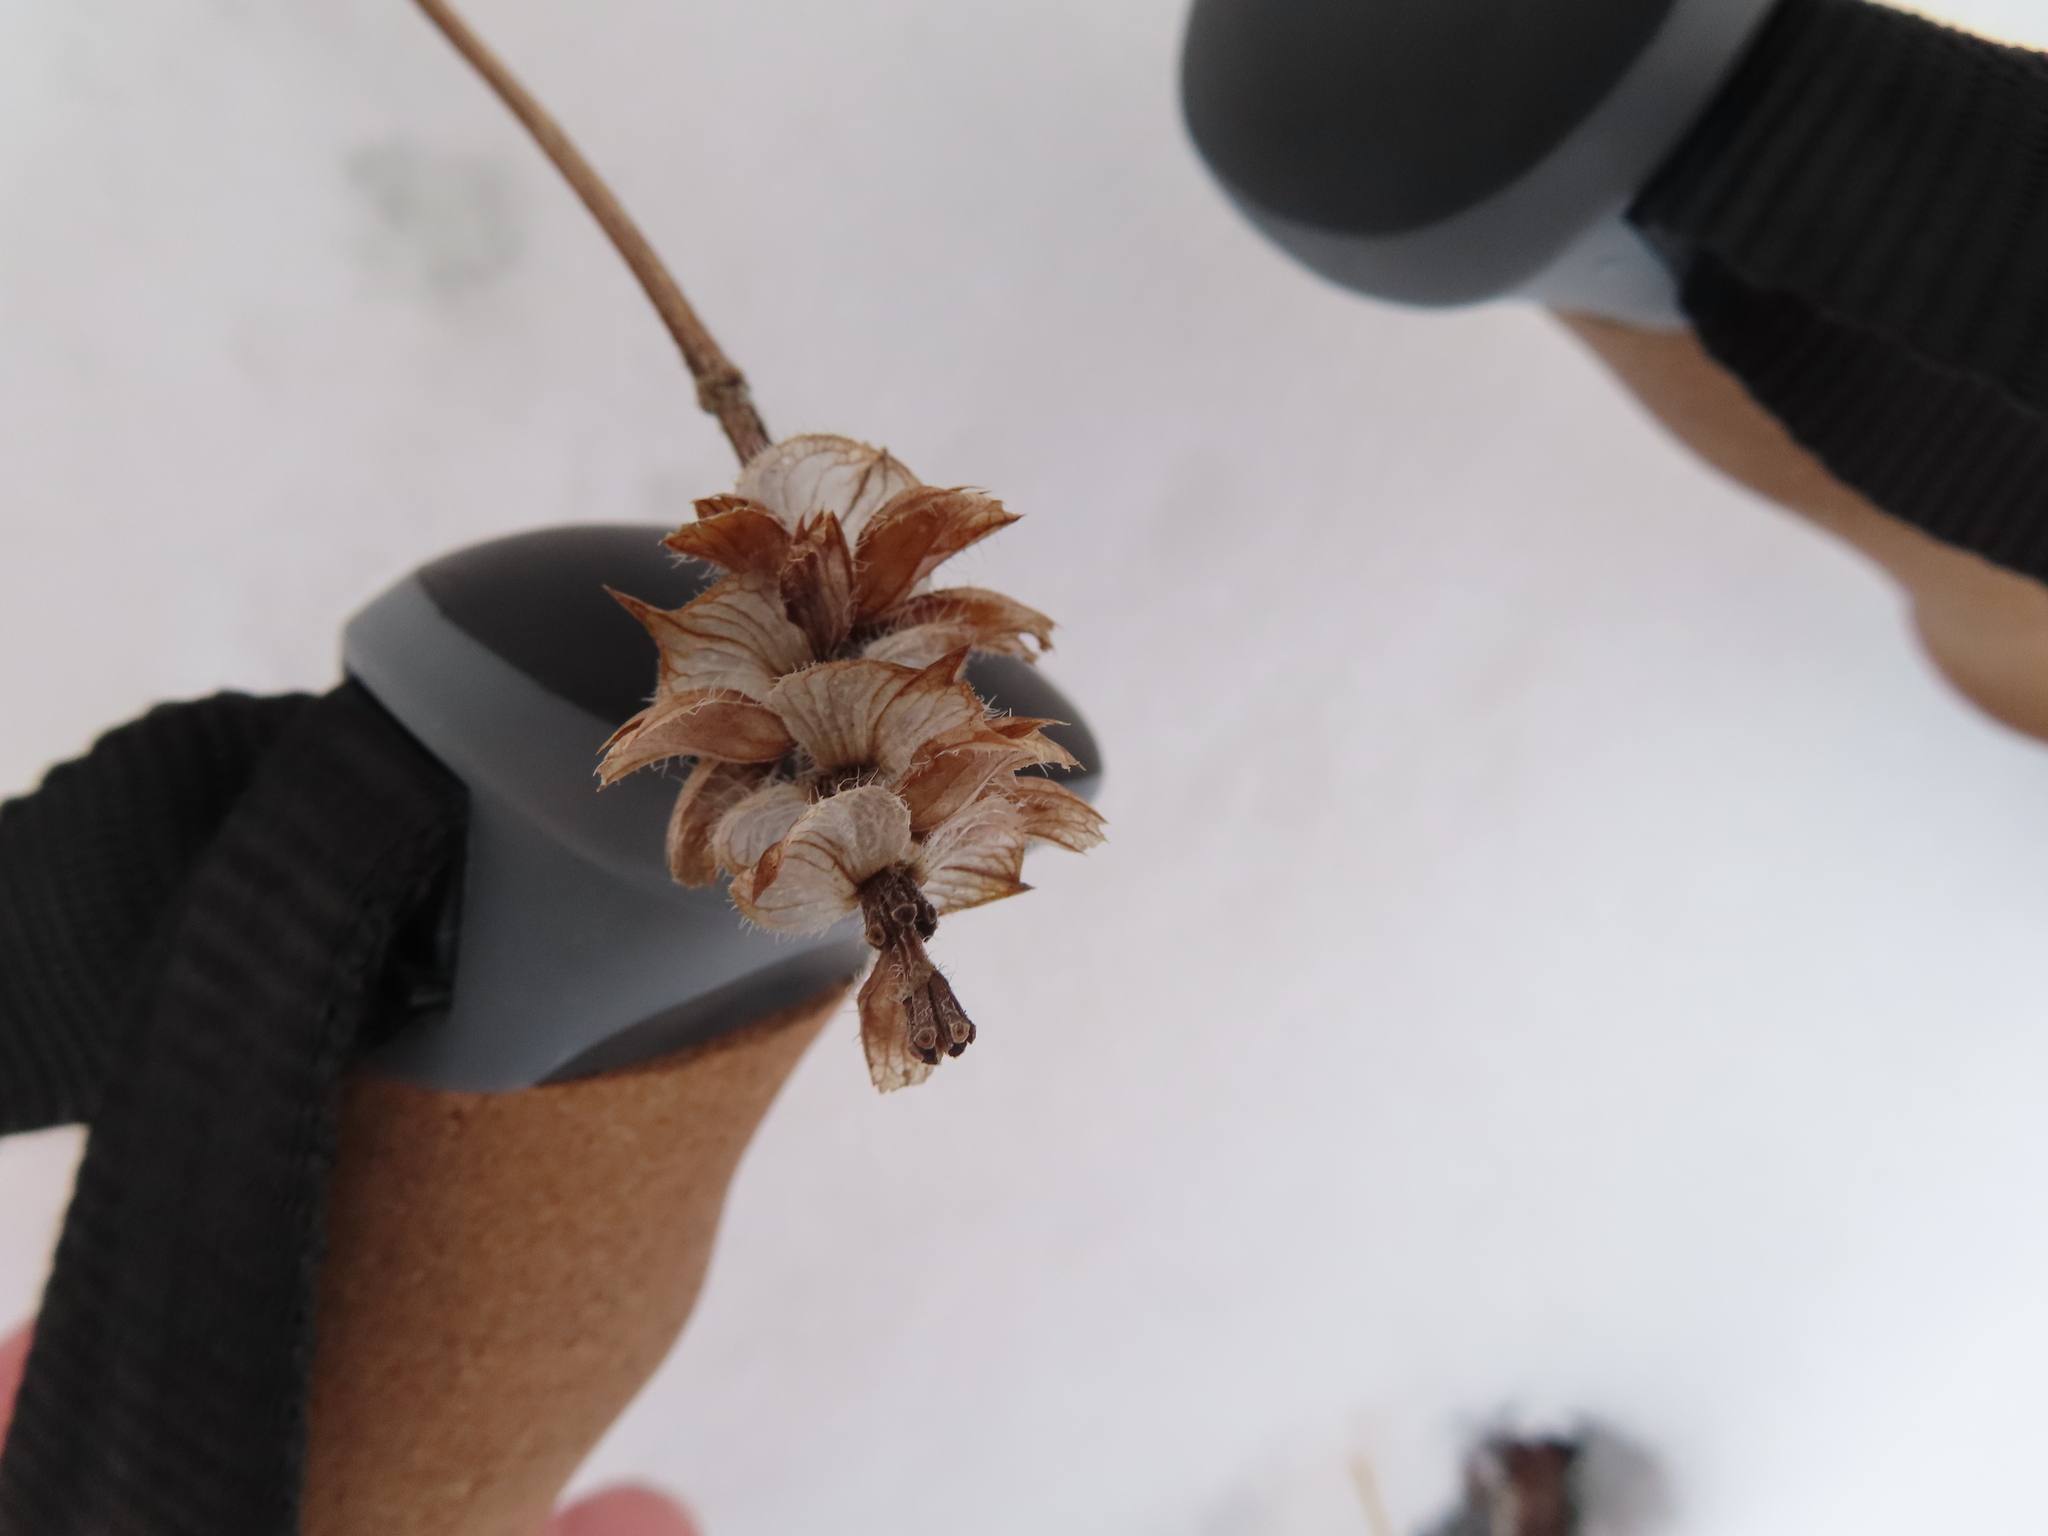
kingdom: Plantae
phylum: Tracheophyta
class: Magnoliopsida
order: Lamiales
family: Lamiaceae
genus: Prunella
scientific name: Prunella vulgaris
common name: Heal-all
